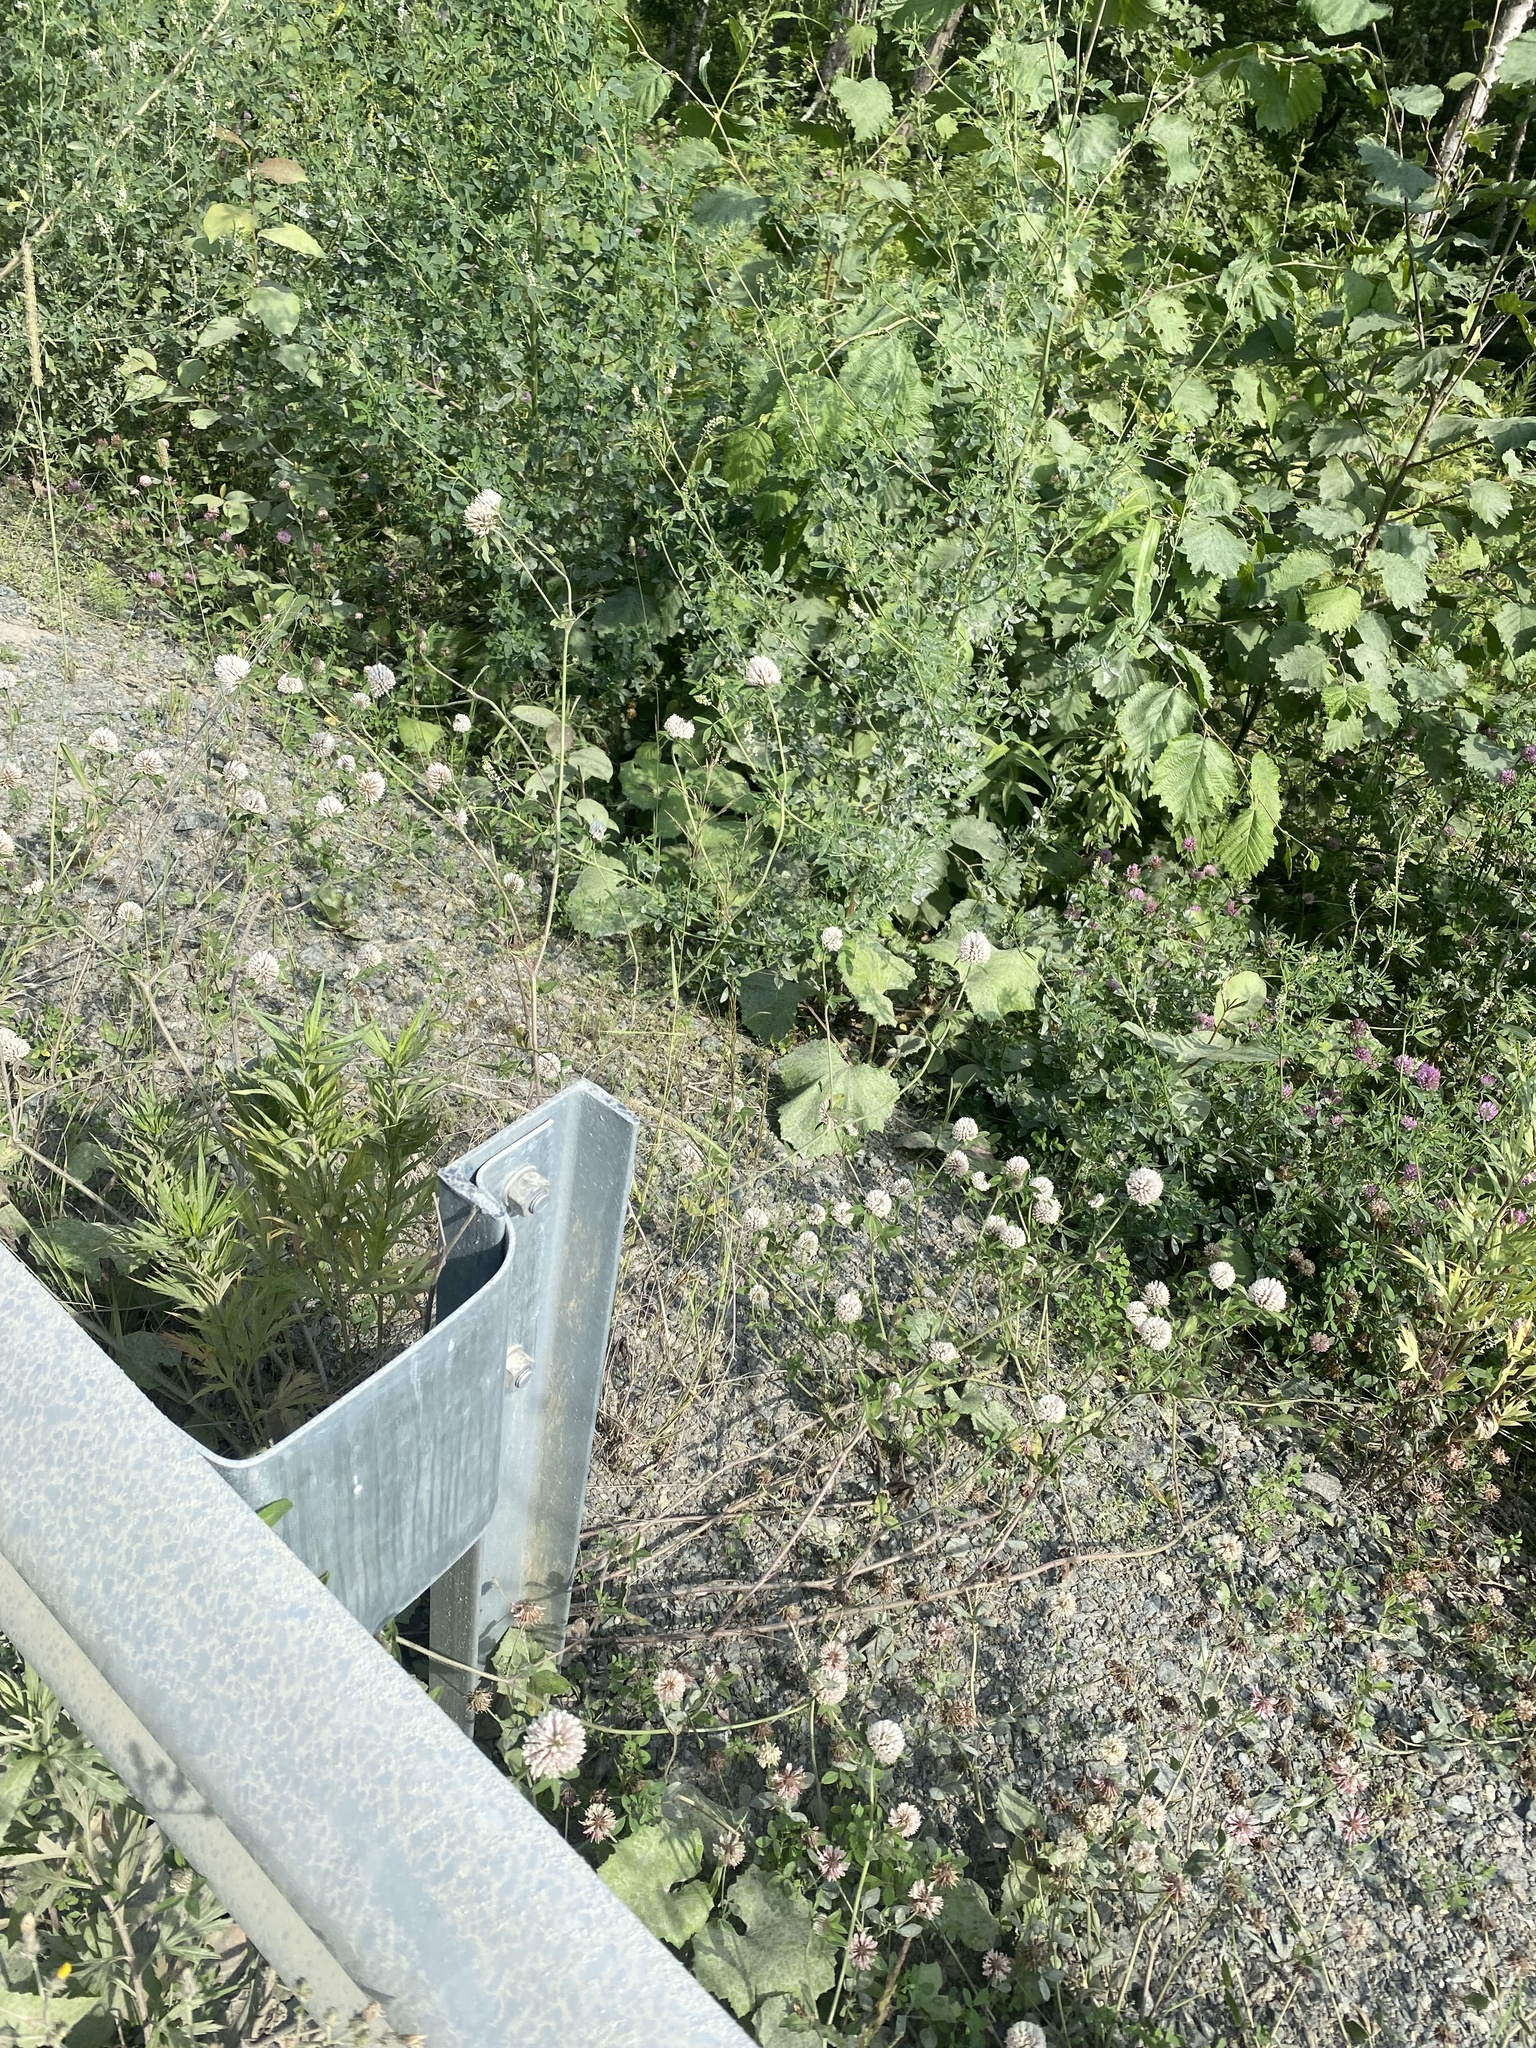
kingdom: Plantae
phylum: Tracheophyta
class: Magnoliopsida
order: Fabales
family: Fabaceae
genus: Trifolium
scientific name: Trifolium pratense
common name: Red clover
